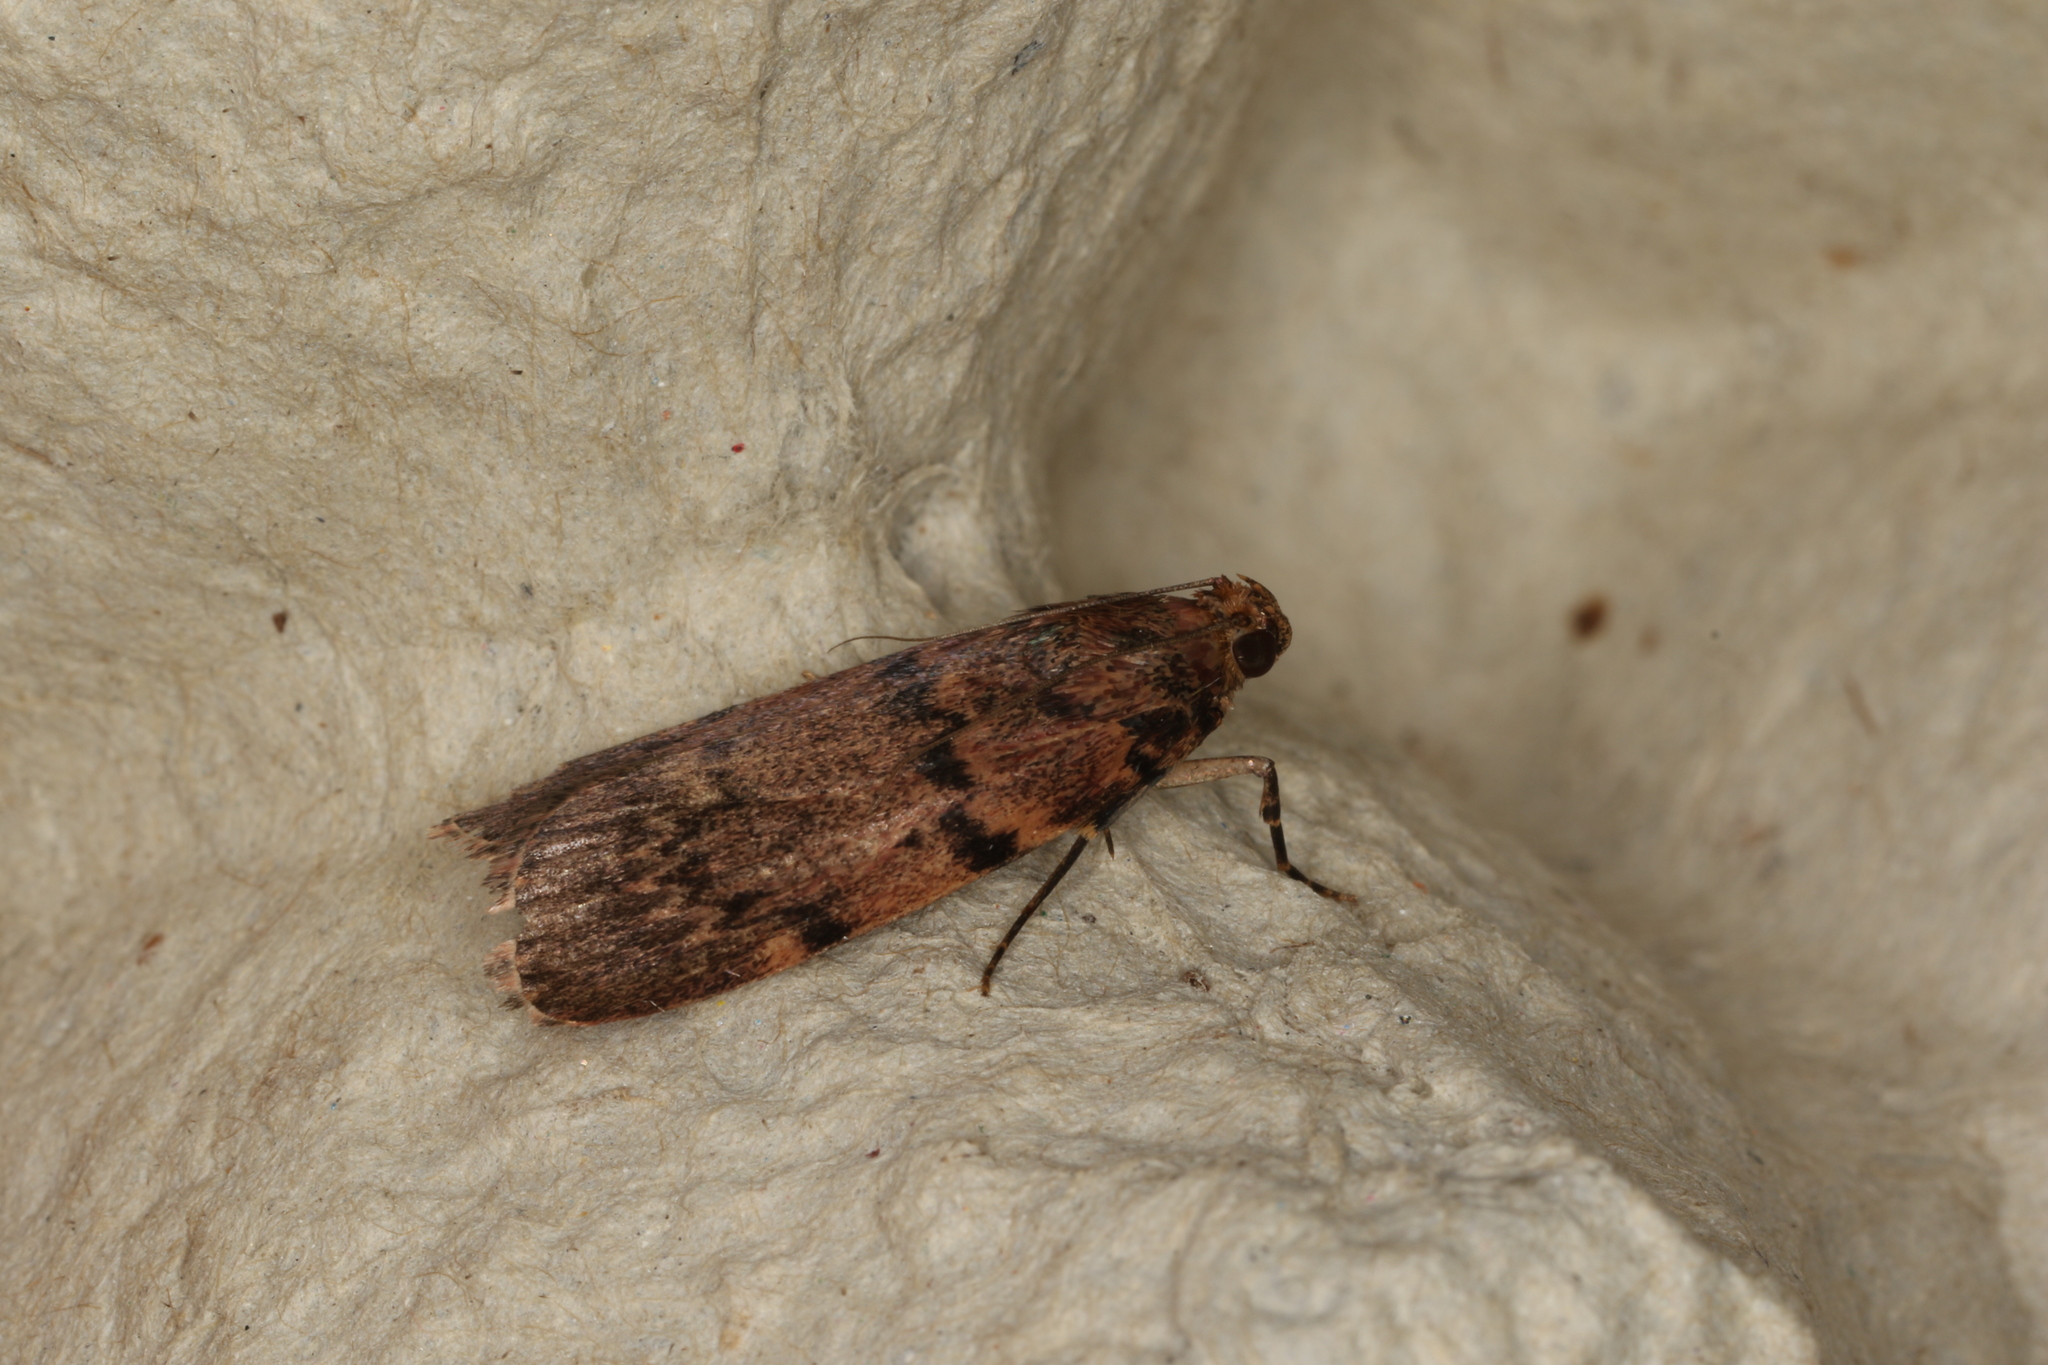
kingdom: Animalia
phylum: Arthropoda
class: Insecta
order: Lepidoptera
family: Pyralidae
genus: Mimaglossa
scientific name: Mimaglossa nauplialis
